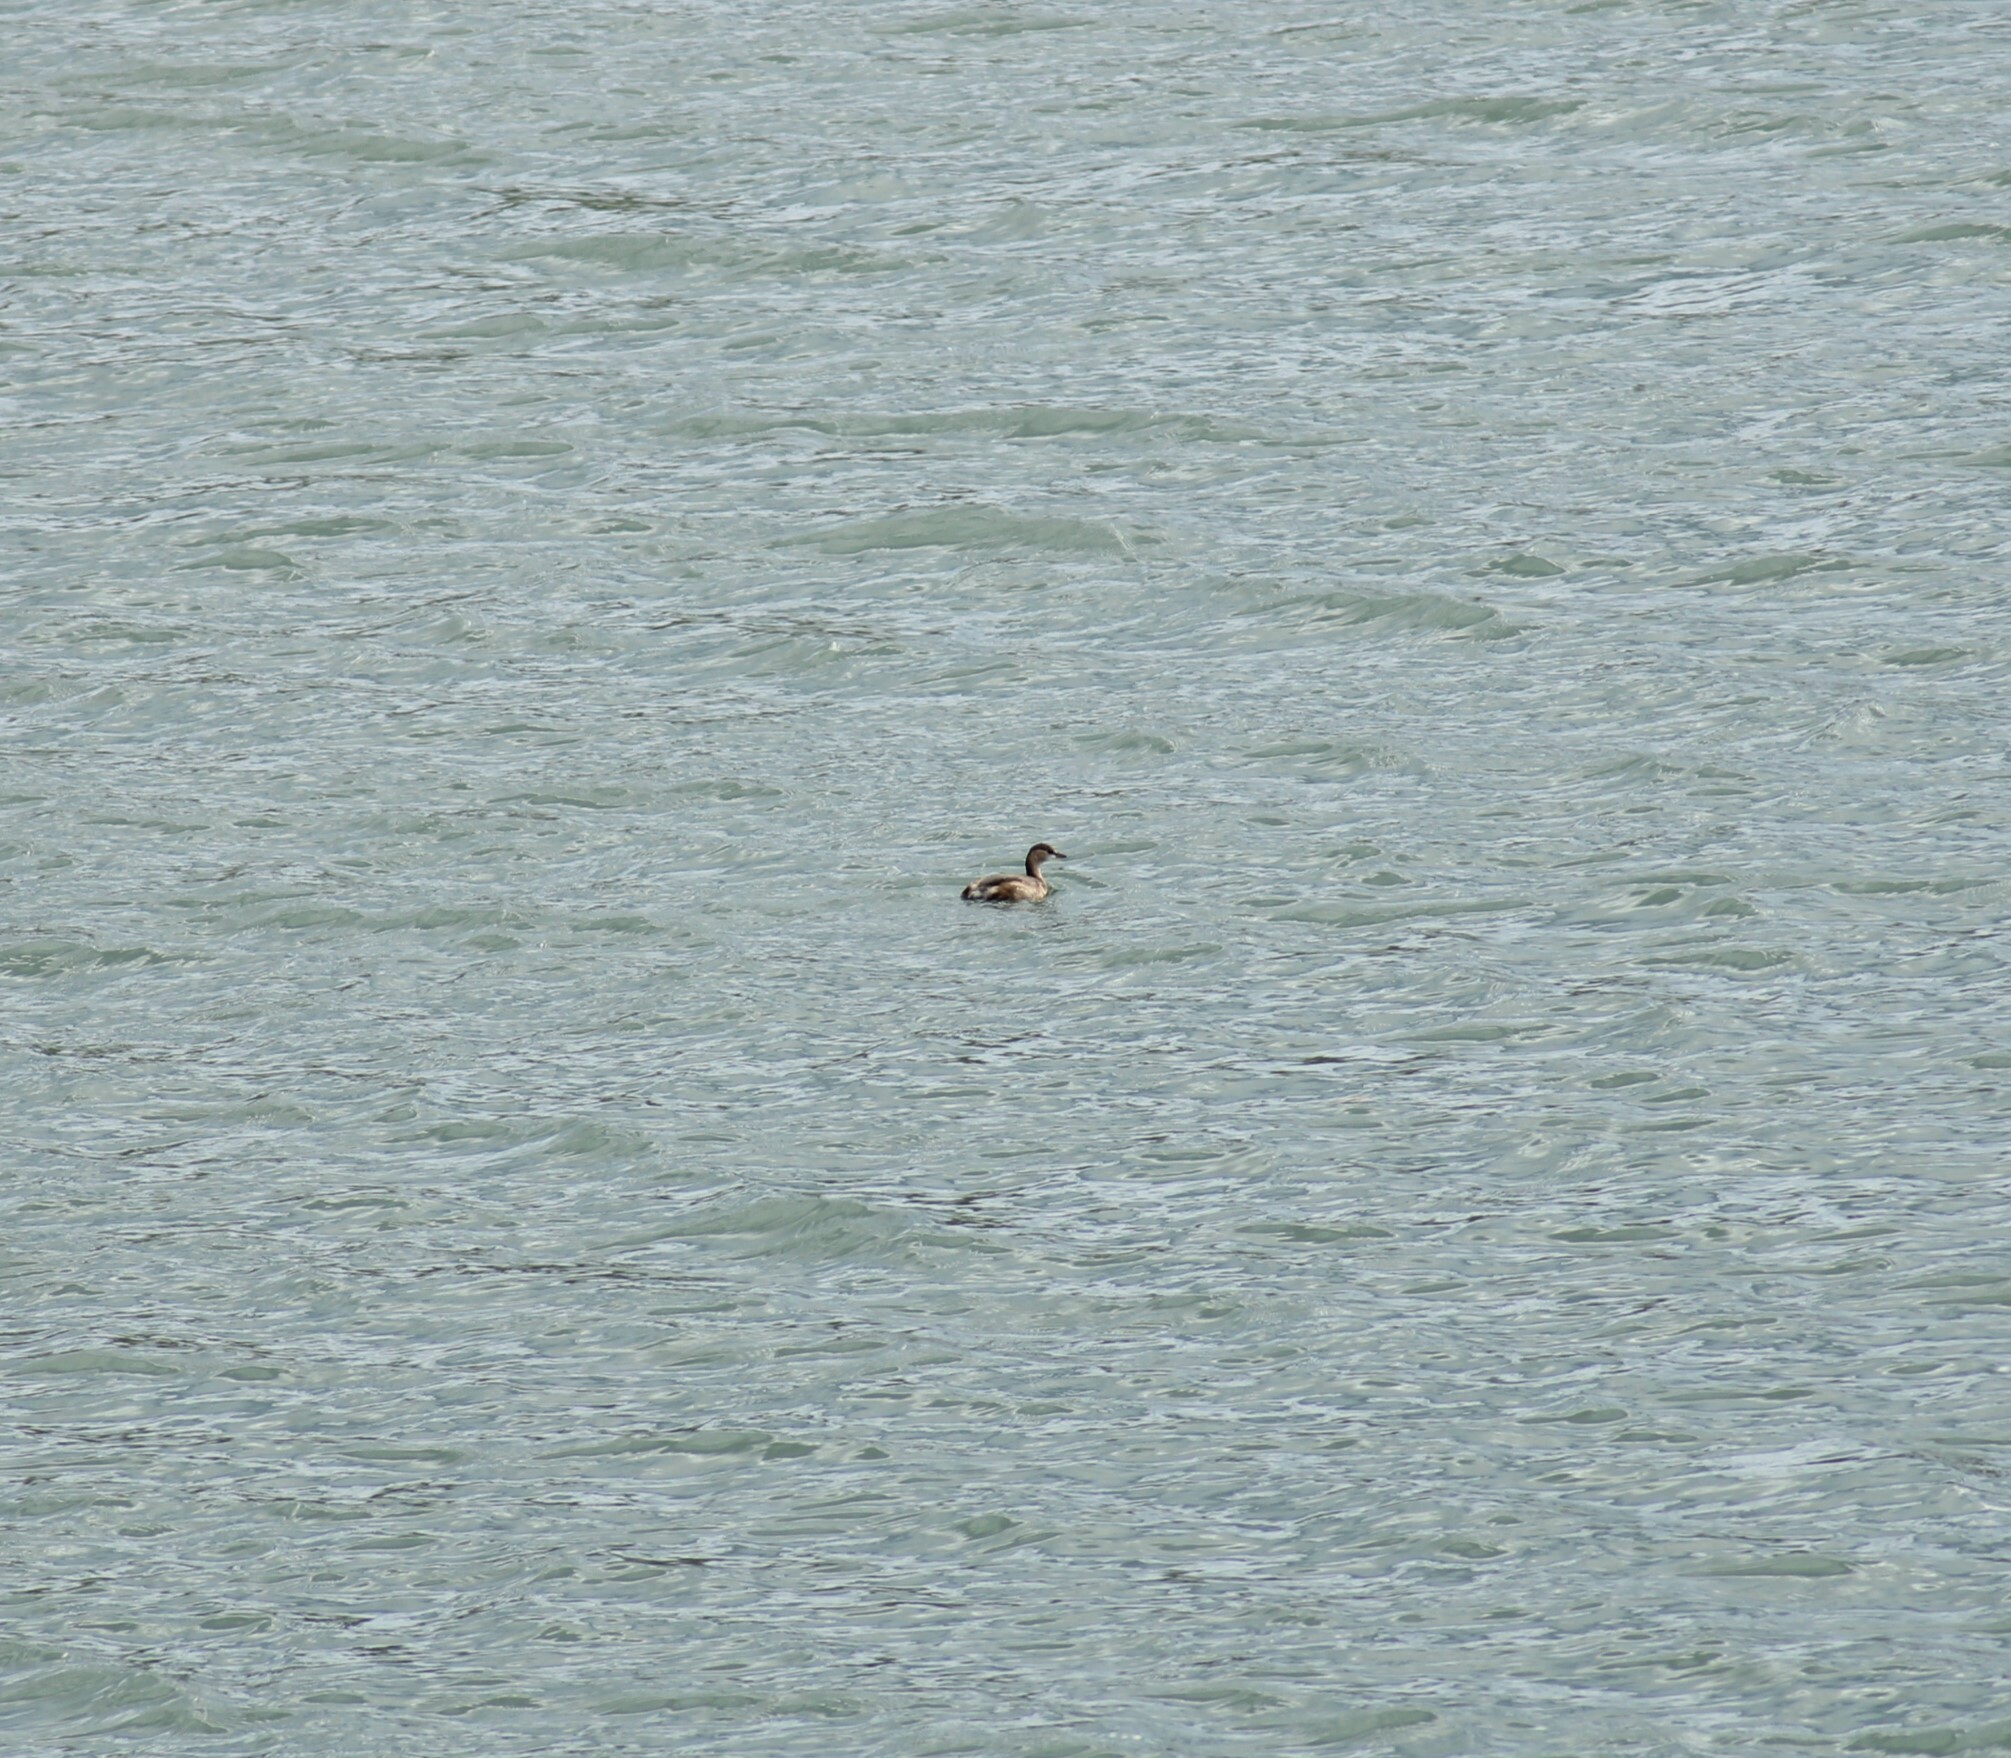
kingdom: Animalia
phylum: Chordata
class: Aves
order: Podicipediformes
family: Podicipedidae
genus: Tachybaptus
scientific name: Tachybaptus ruficollis
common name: Little grebe
